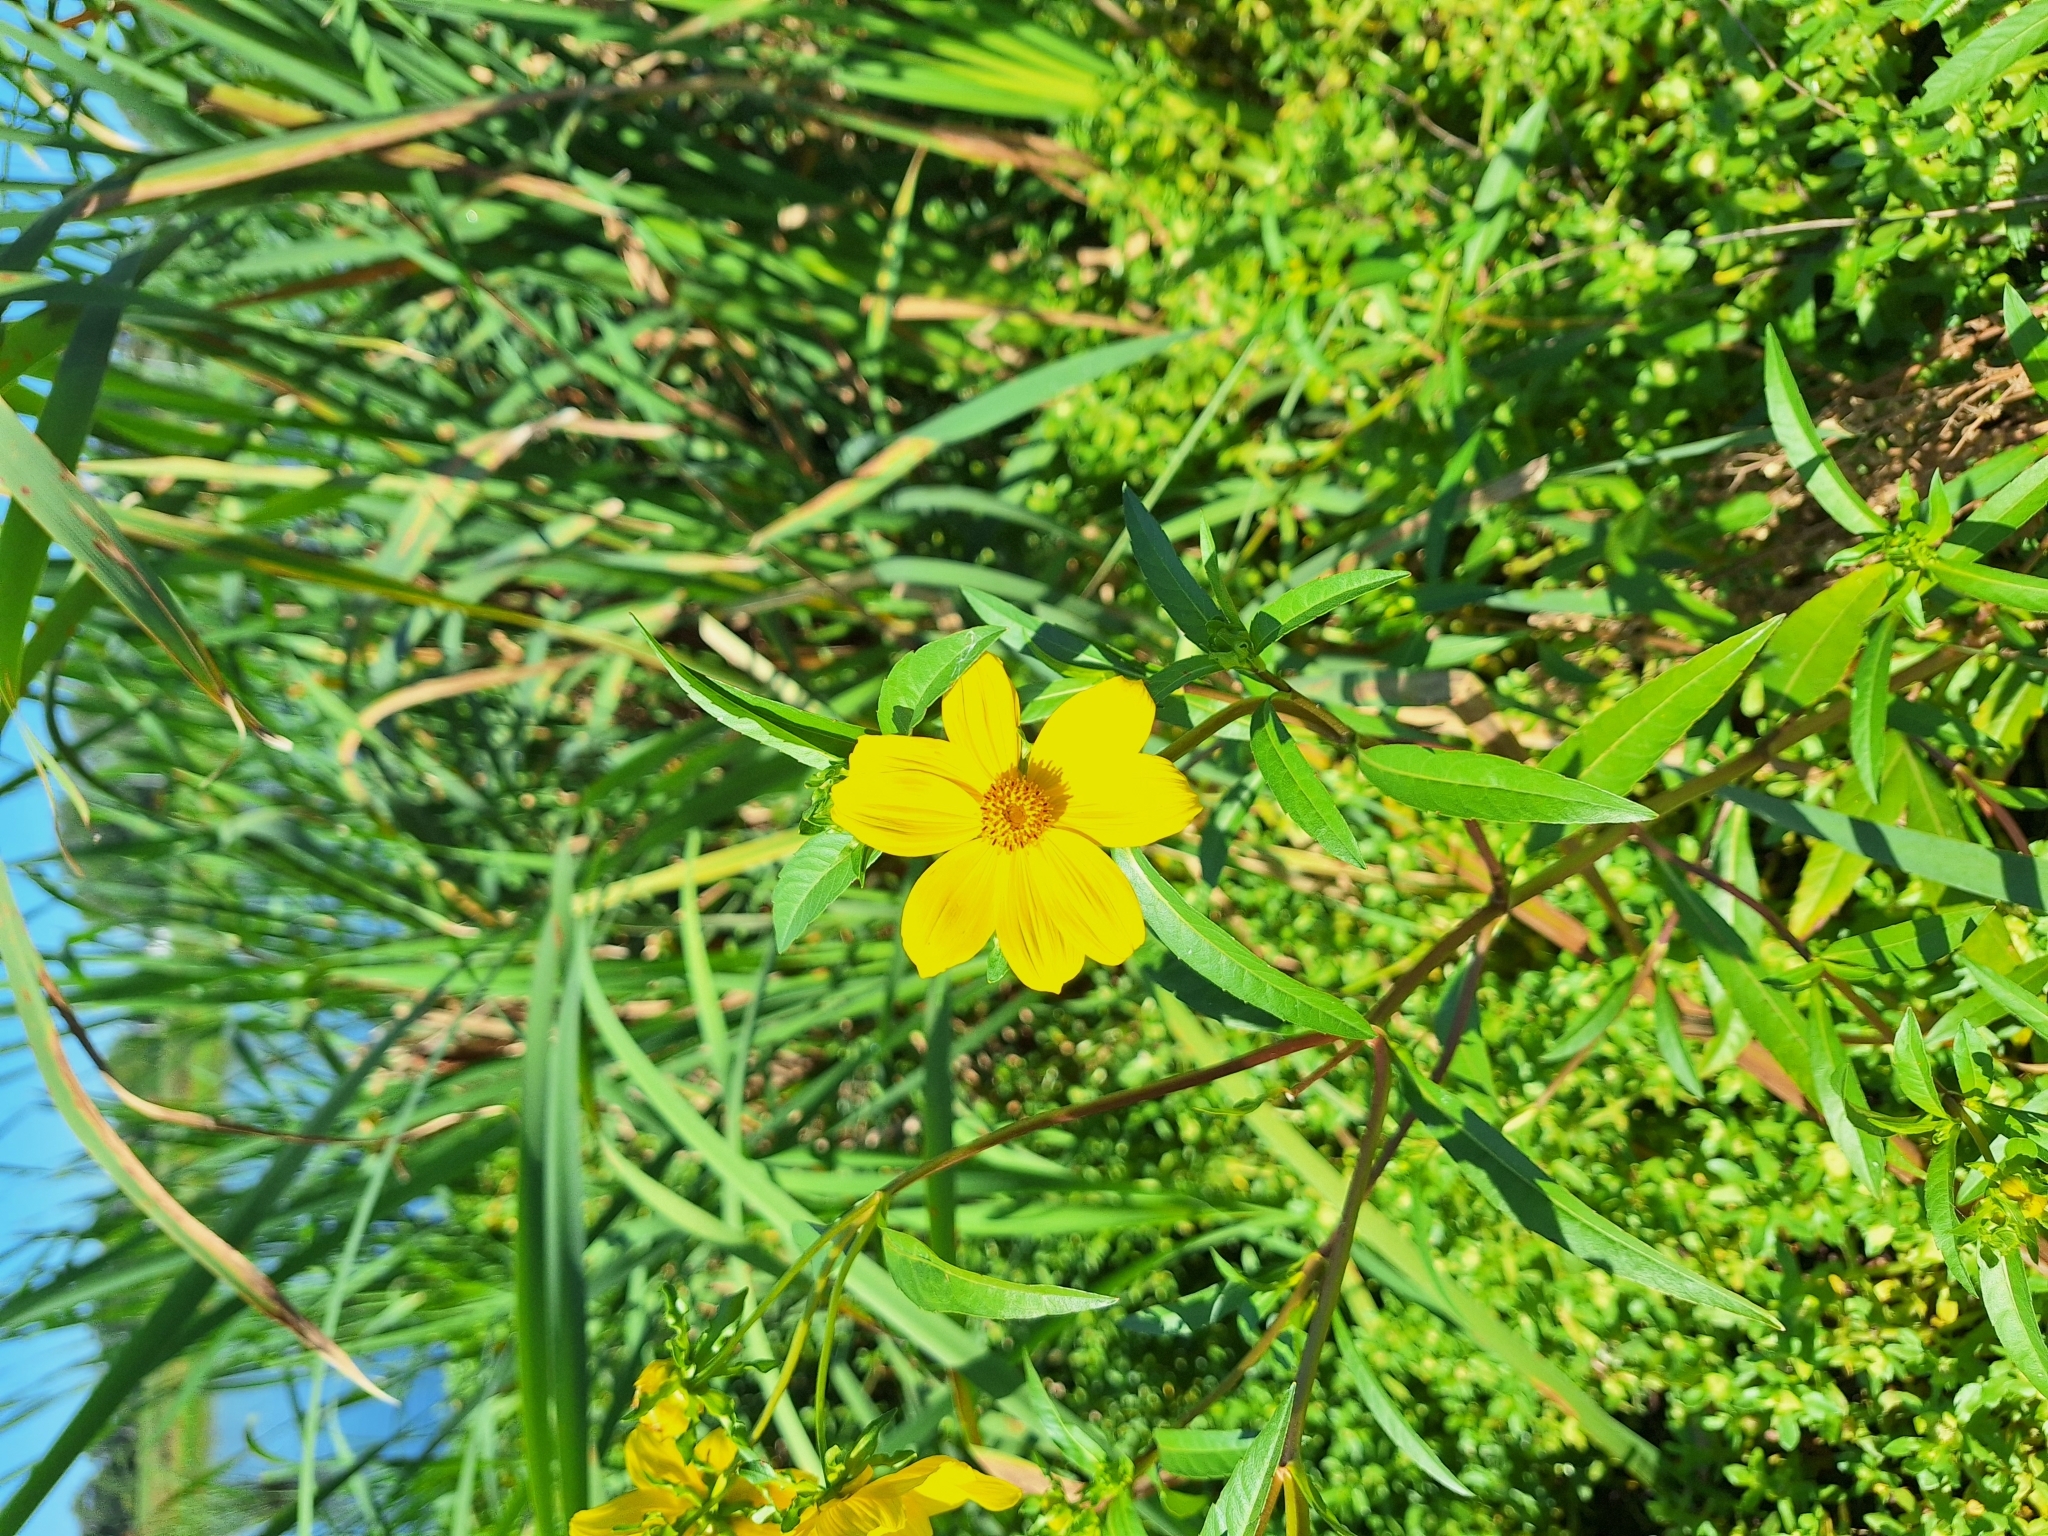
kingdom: Plantae
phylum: Tracheophyta
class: Magnoliopsida
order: Asterales
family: Asteraceae
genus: Bidens
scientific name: Bidens laevis
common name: Larger bur-marigold
